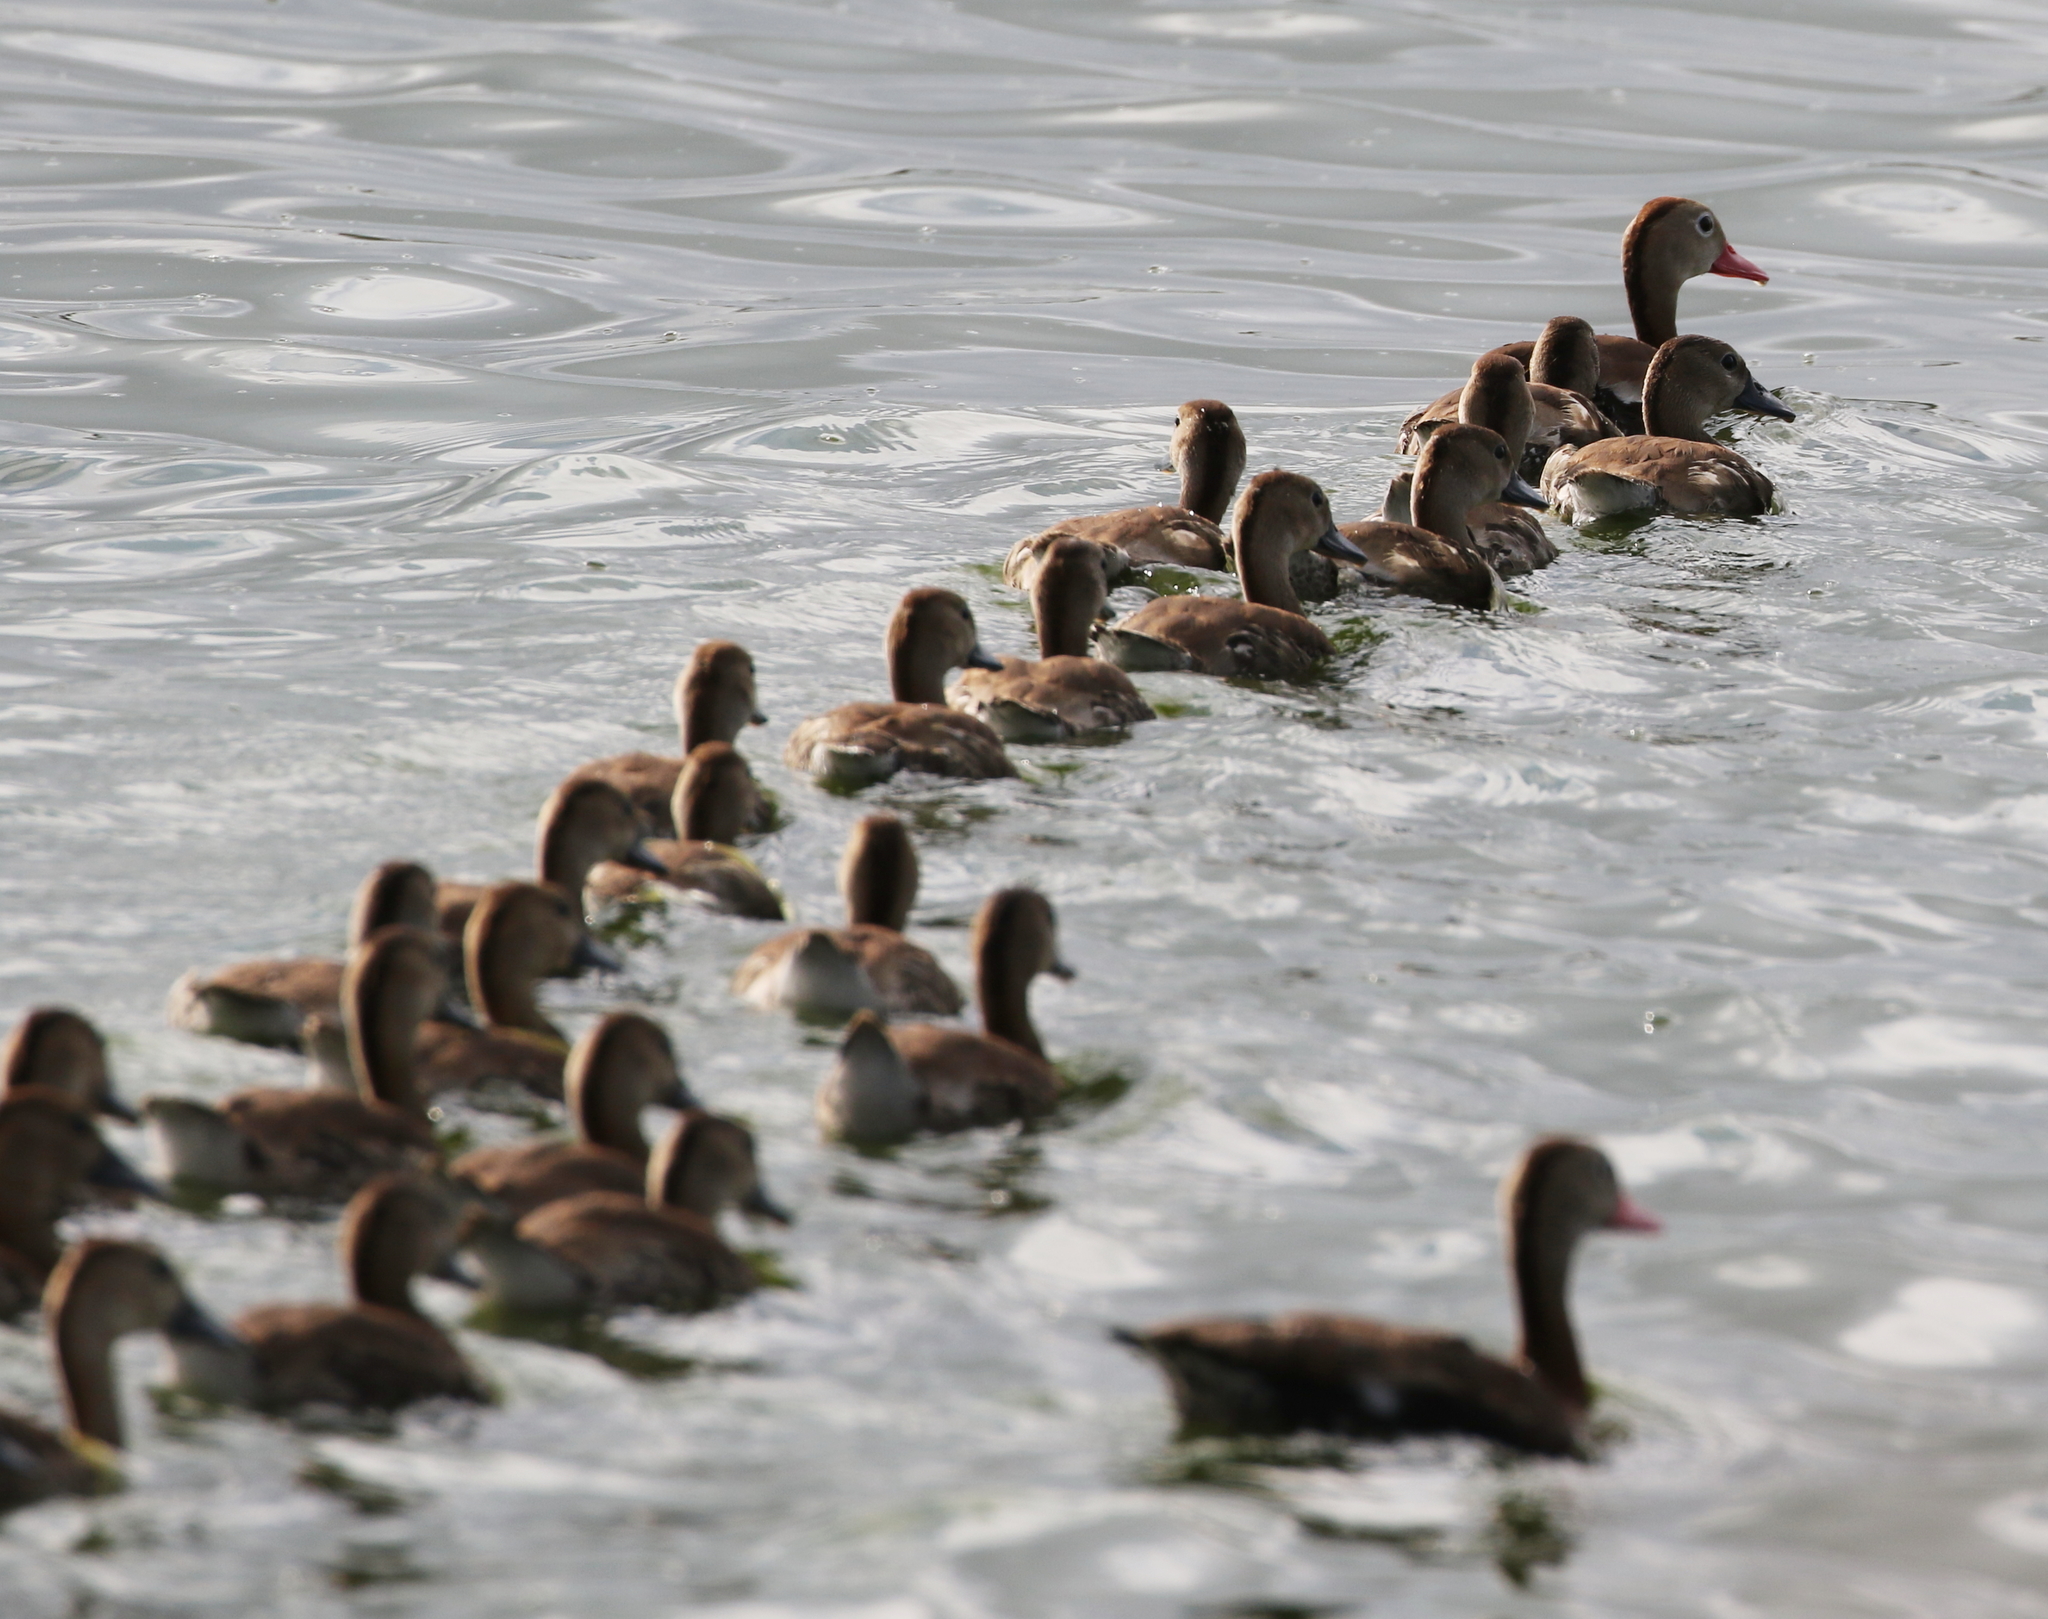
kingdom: Animalia
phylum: Chordata
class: Aves
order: Anseriformes
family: Anatidae
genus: Dendrocygna
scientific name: Dendrocygna autumnalis
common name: Black-bellied whistling duck
